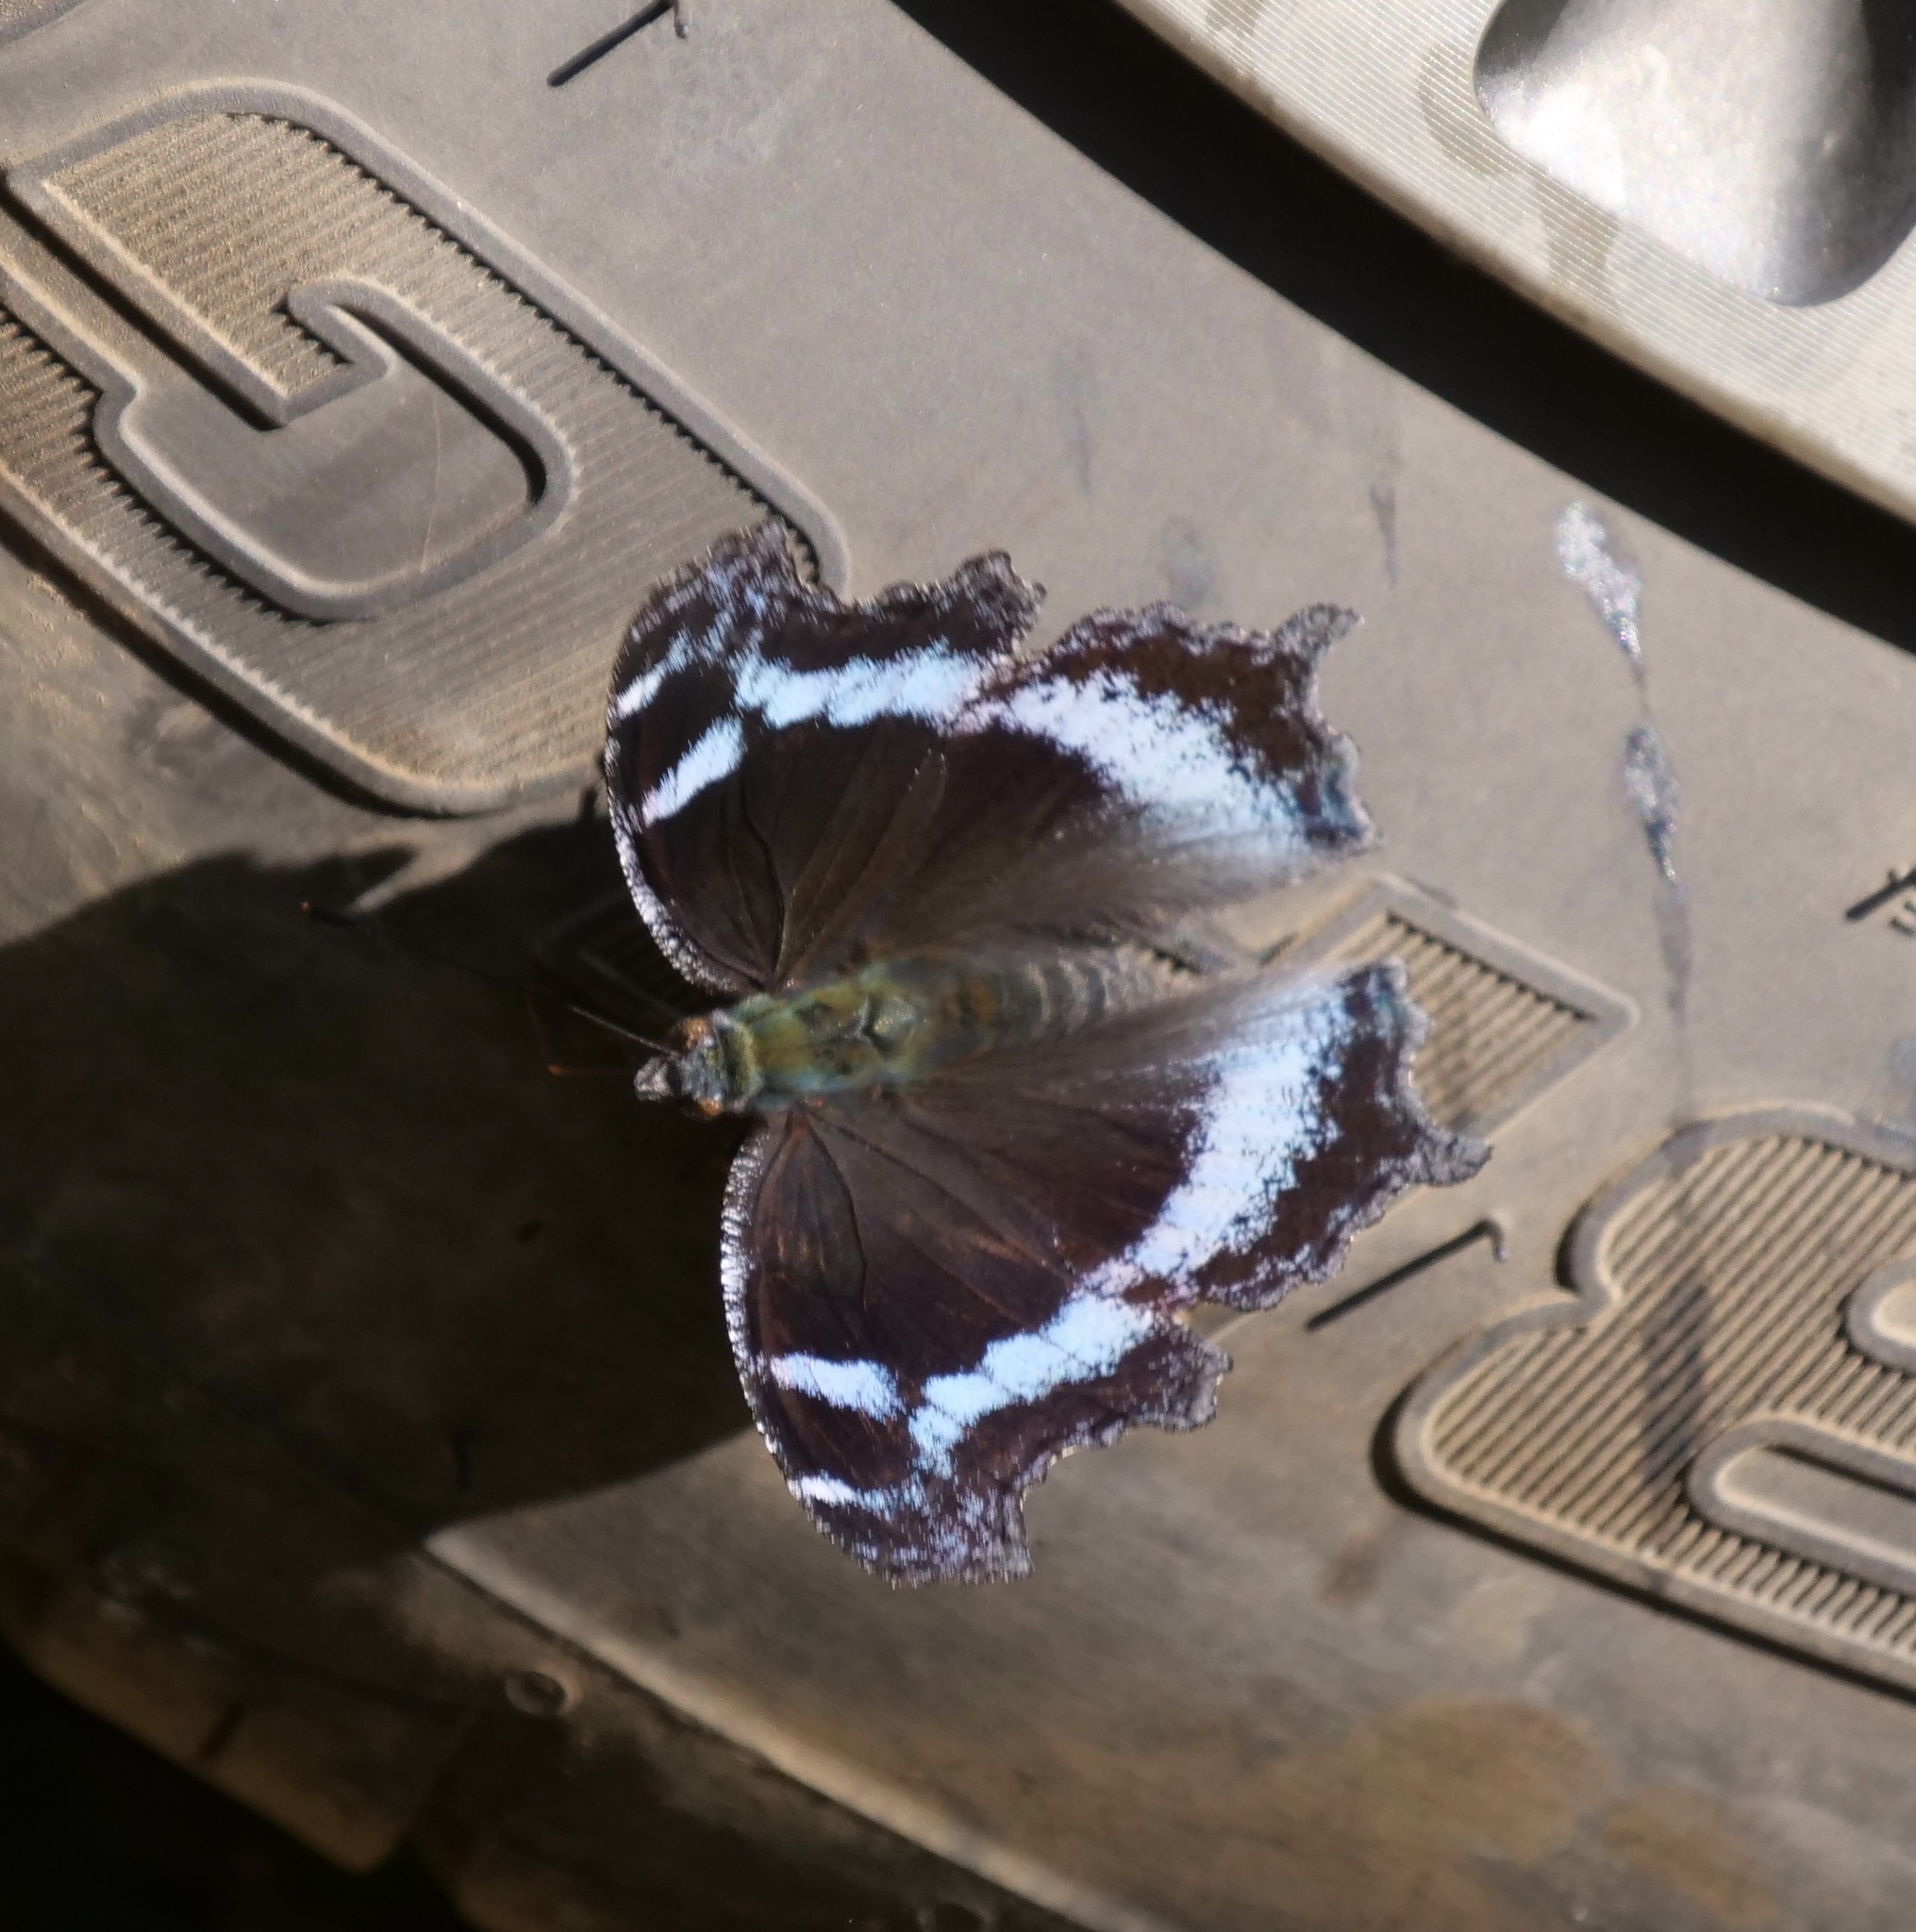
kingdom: Animalia
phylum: Arthropoda
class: Insecta
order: Lepidoptera
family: Nymphalidae
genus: Vanessa
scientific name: Vanessa Kaniska canace
